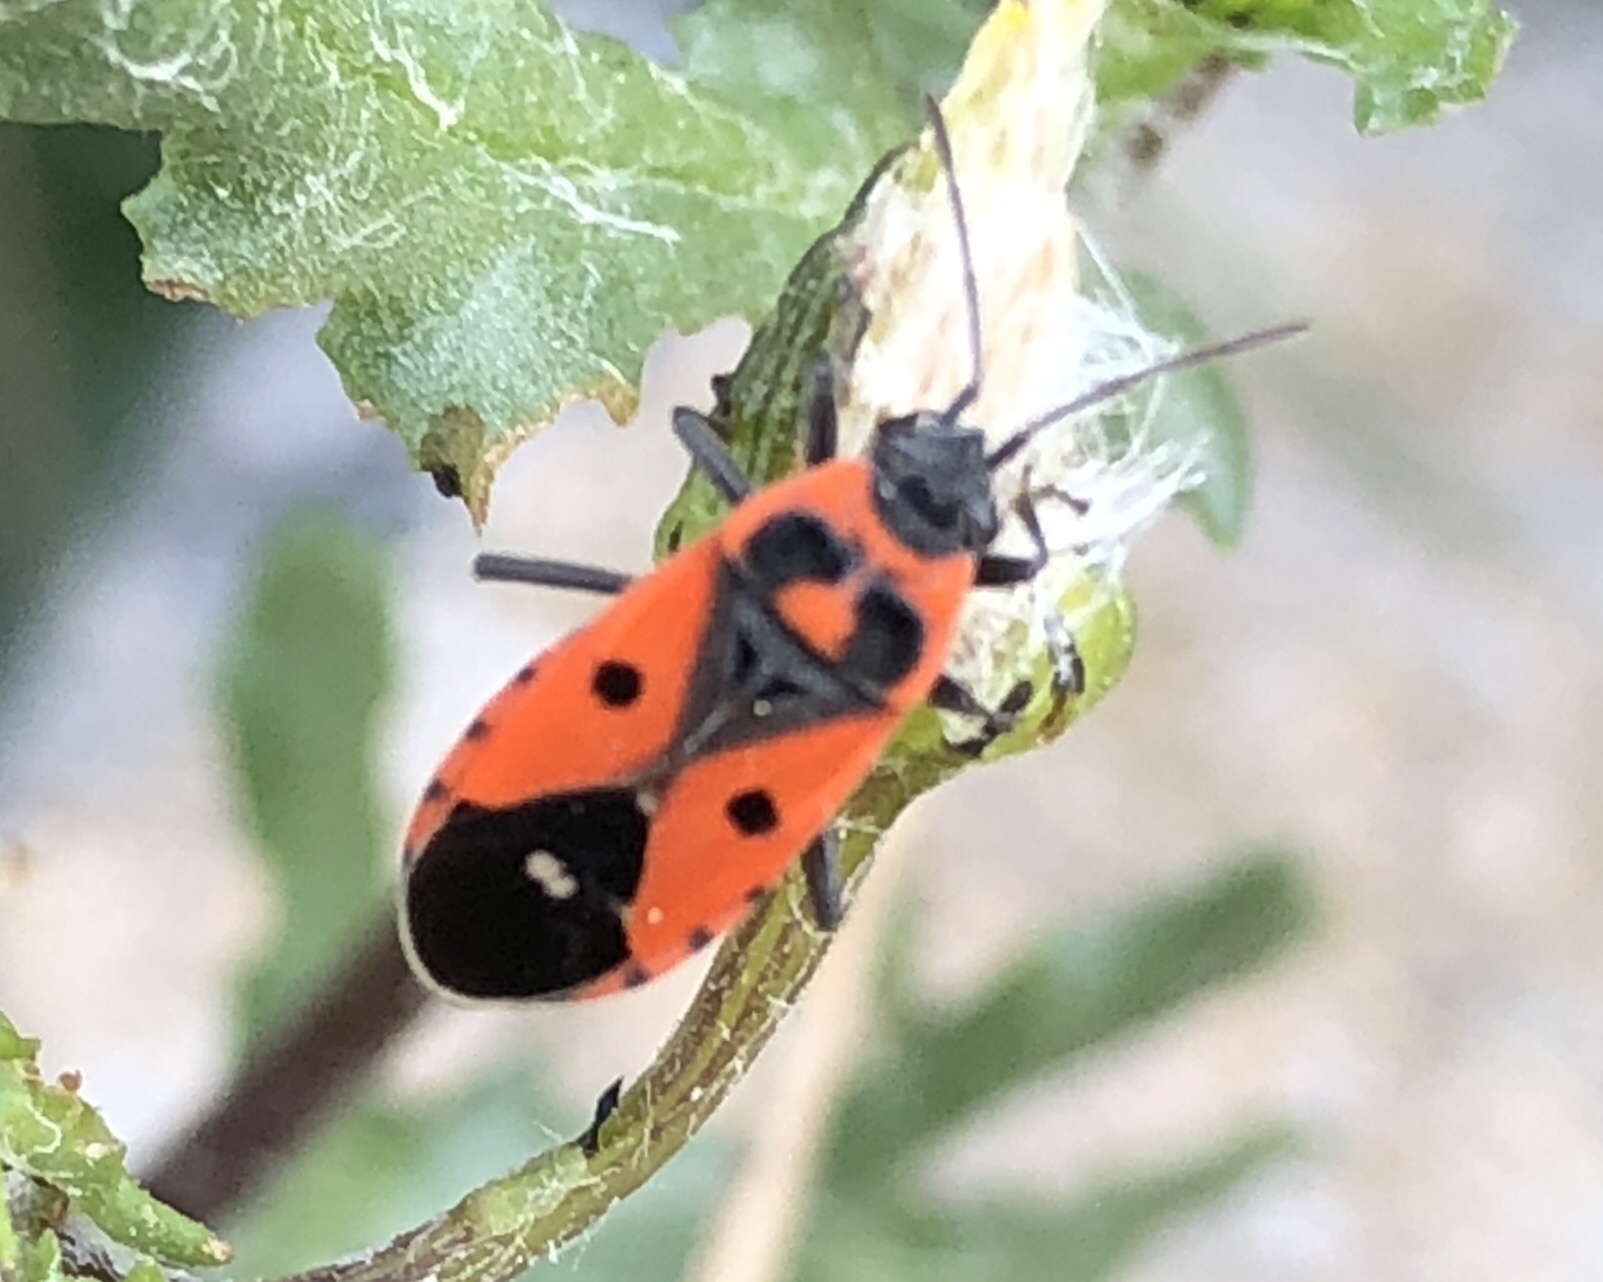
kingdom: Animalia
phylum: Arthropoda
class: Insecta
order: Hemiptera
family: Lygaeidae
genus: Melanocoryphus
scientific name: Melanocoryphus albomaculatus
